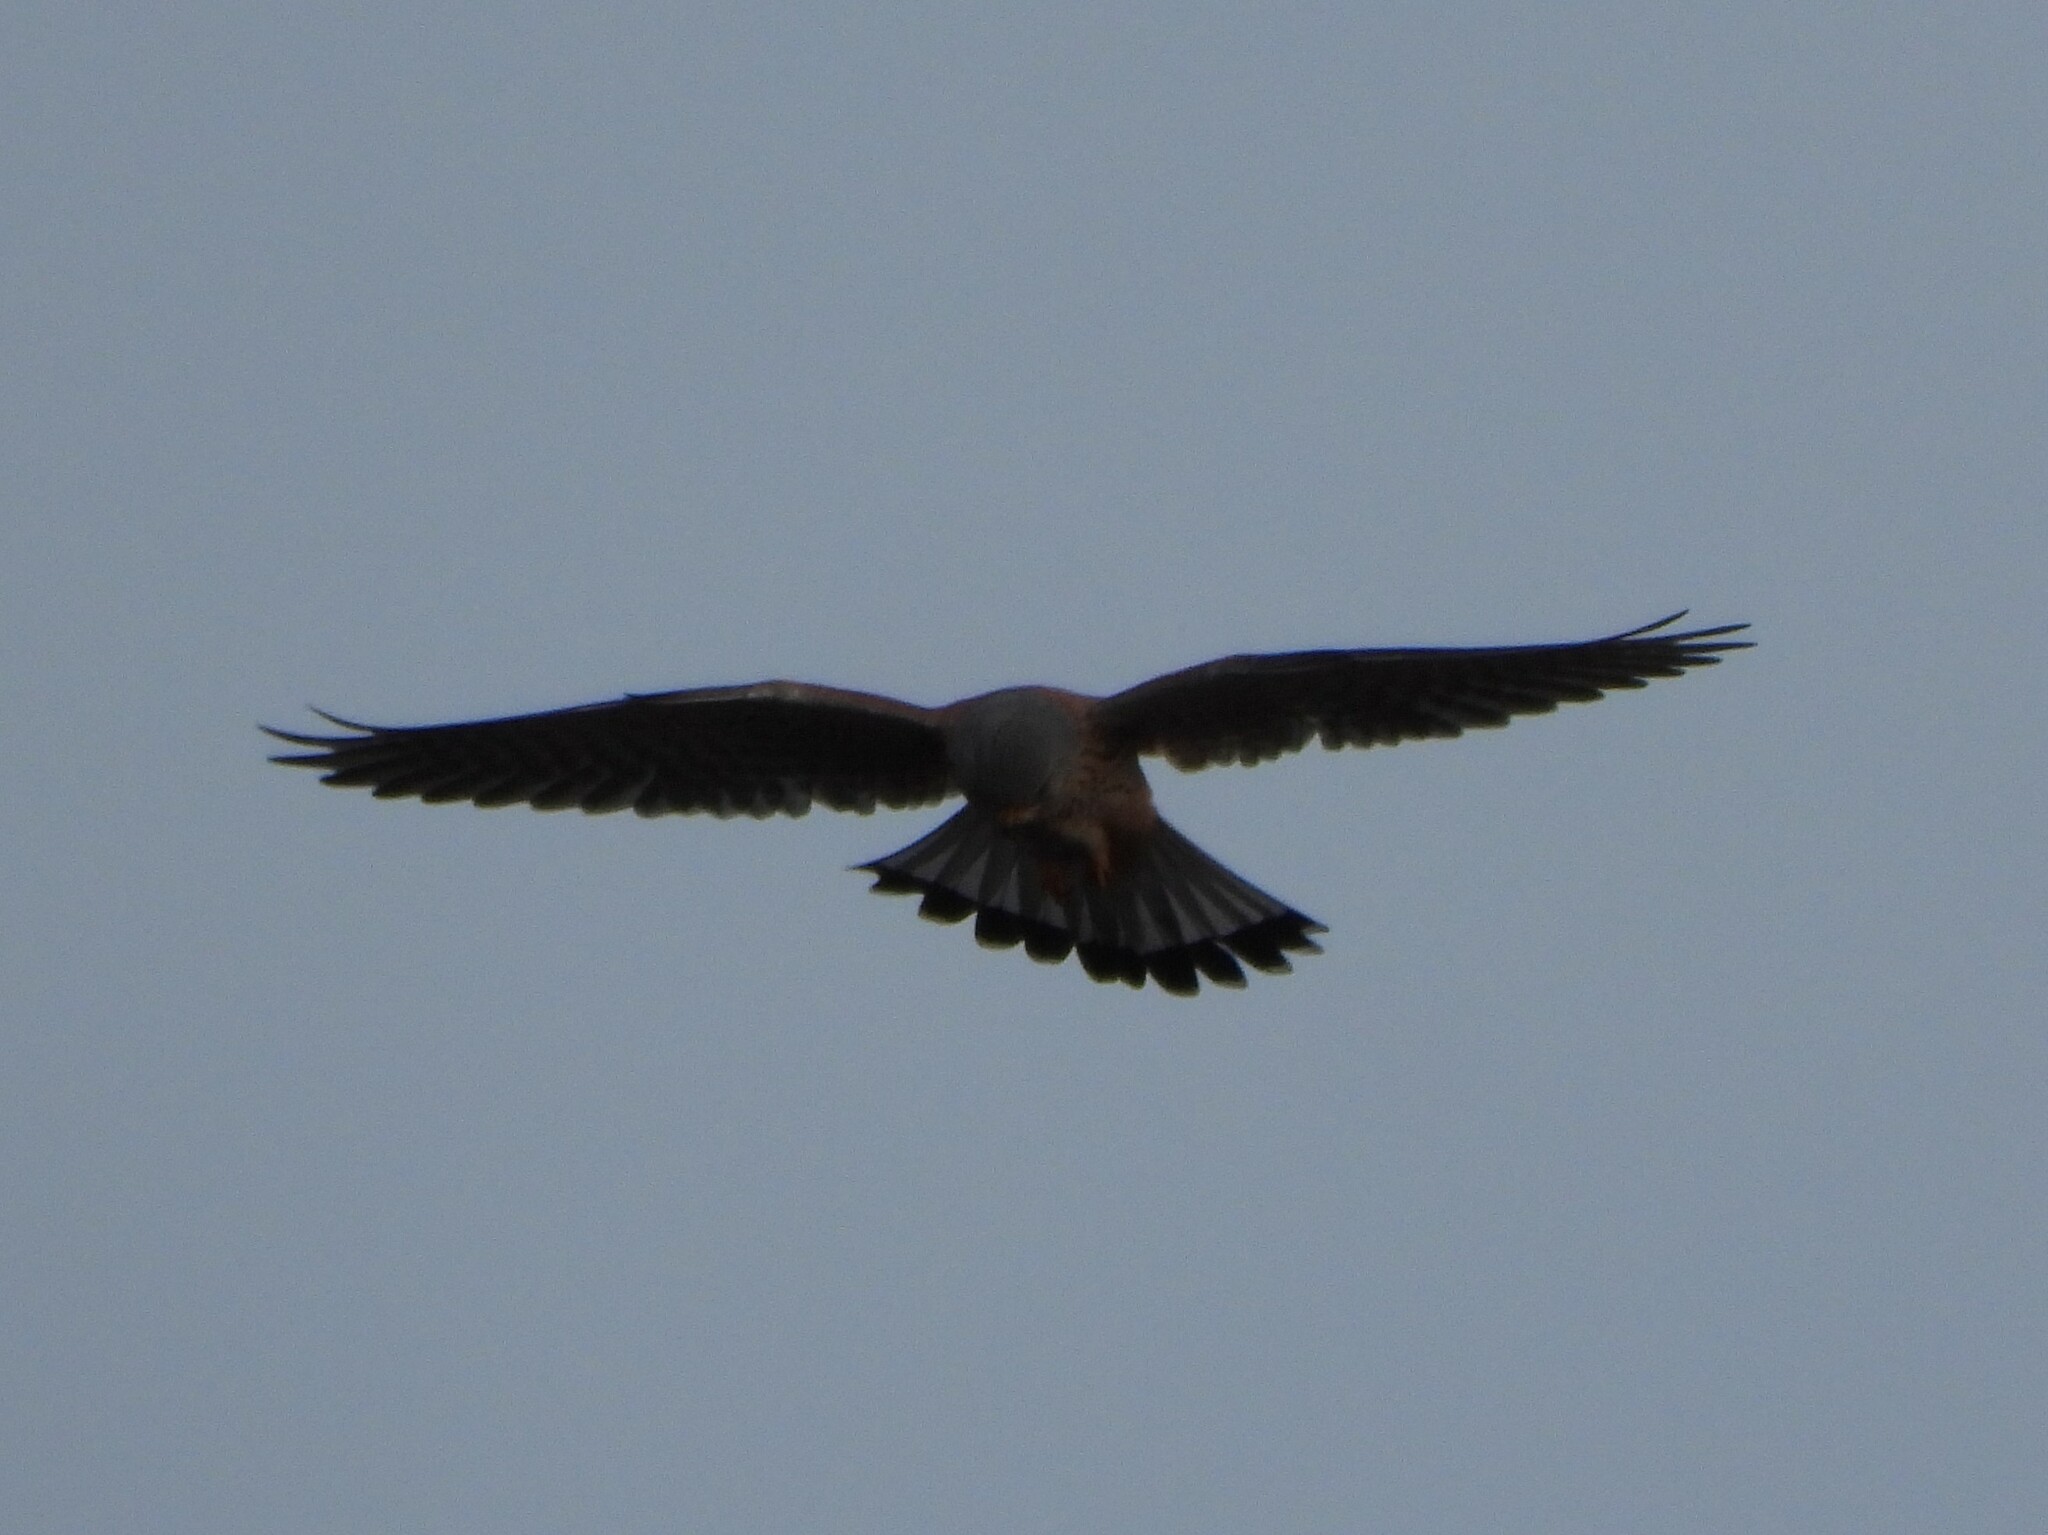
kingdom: Animalia
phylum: Chordata
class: Aves
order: Falconiformes
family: Falconidae
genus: Falco
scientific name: Falco tinnunculus
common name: Common kestrel
